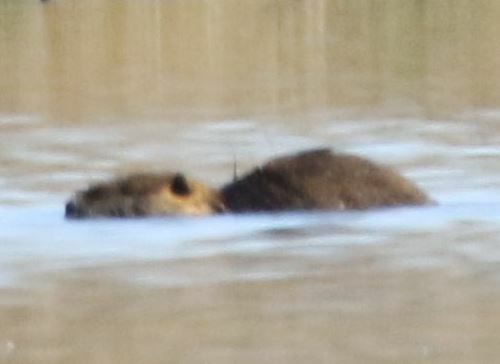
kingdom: Animalia
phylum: Chordata
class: Mammalia
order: Rodentia
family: Myocastoridae
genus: Myocastor
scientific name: Myocastor coypus
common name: Coypu
